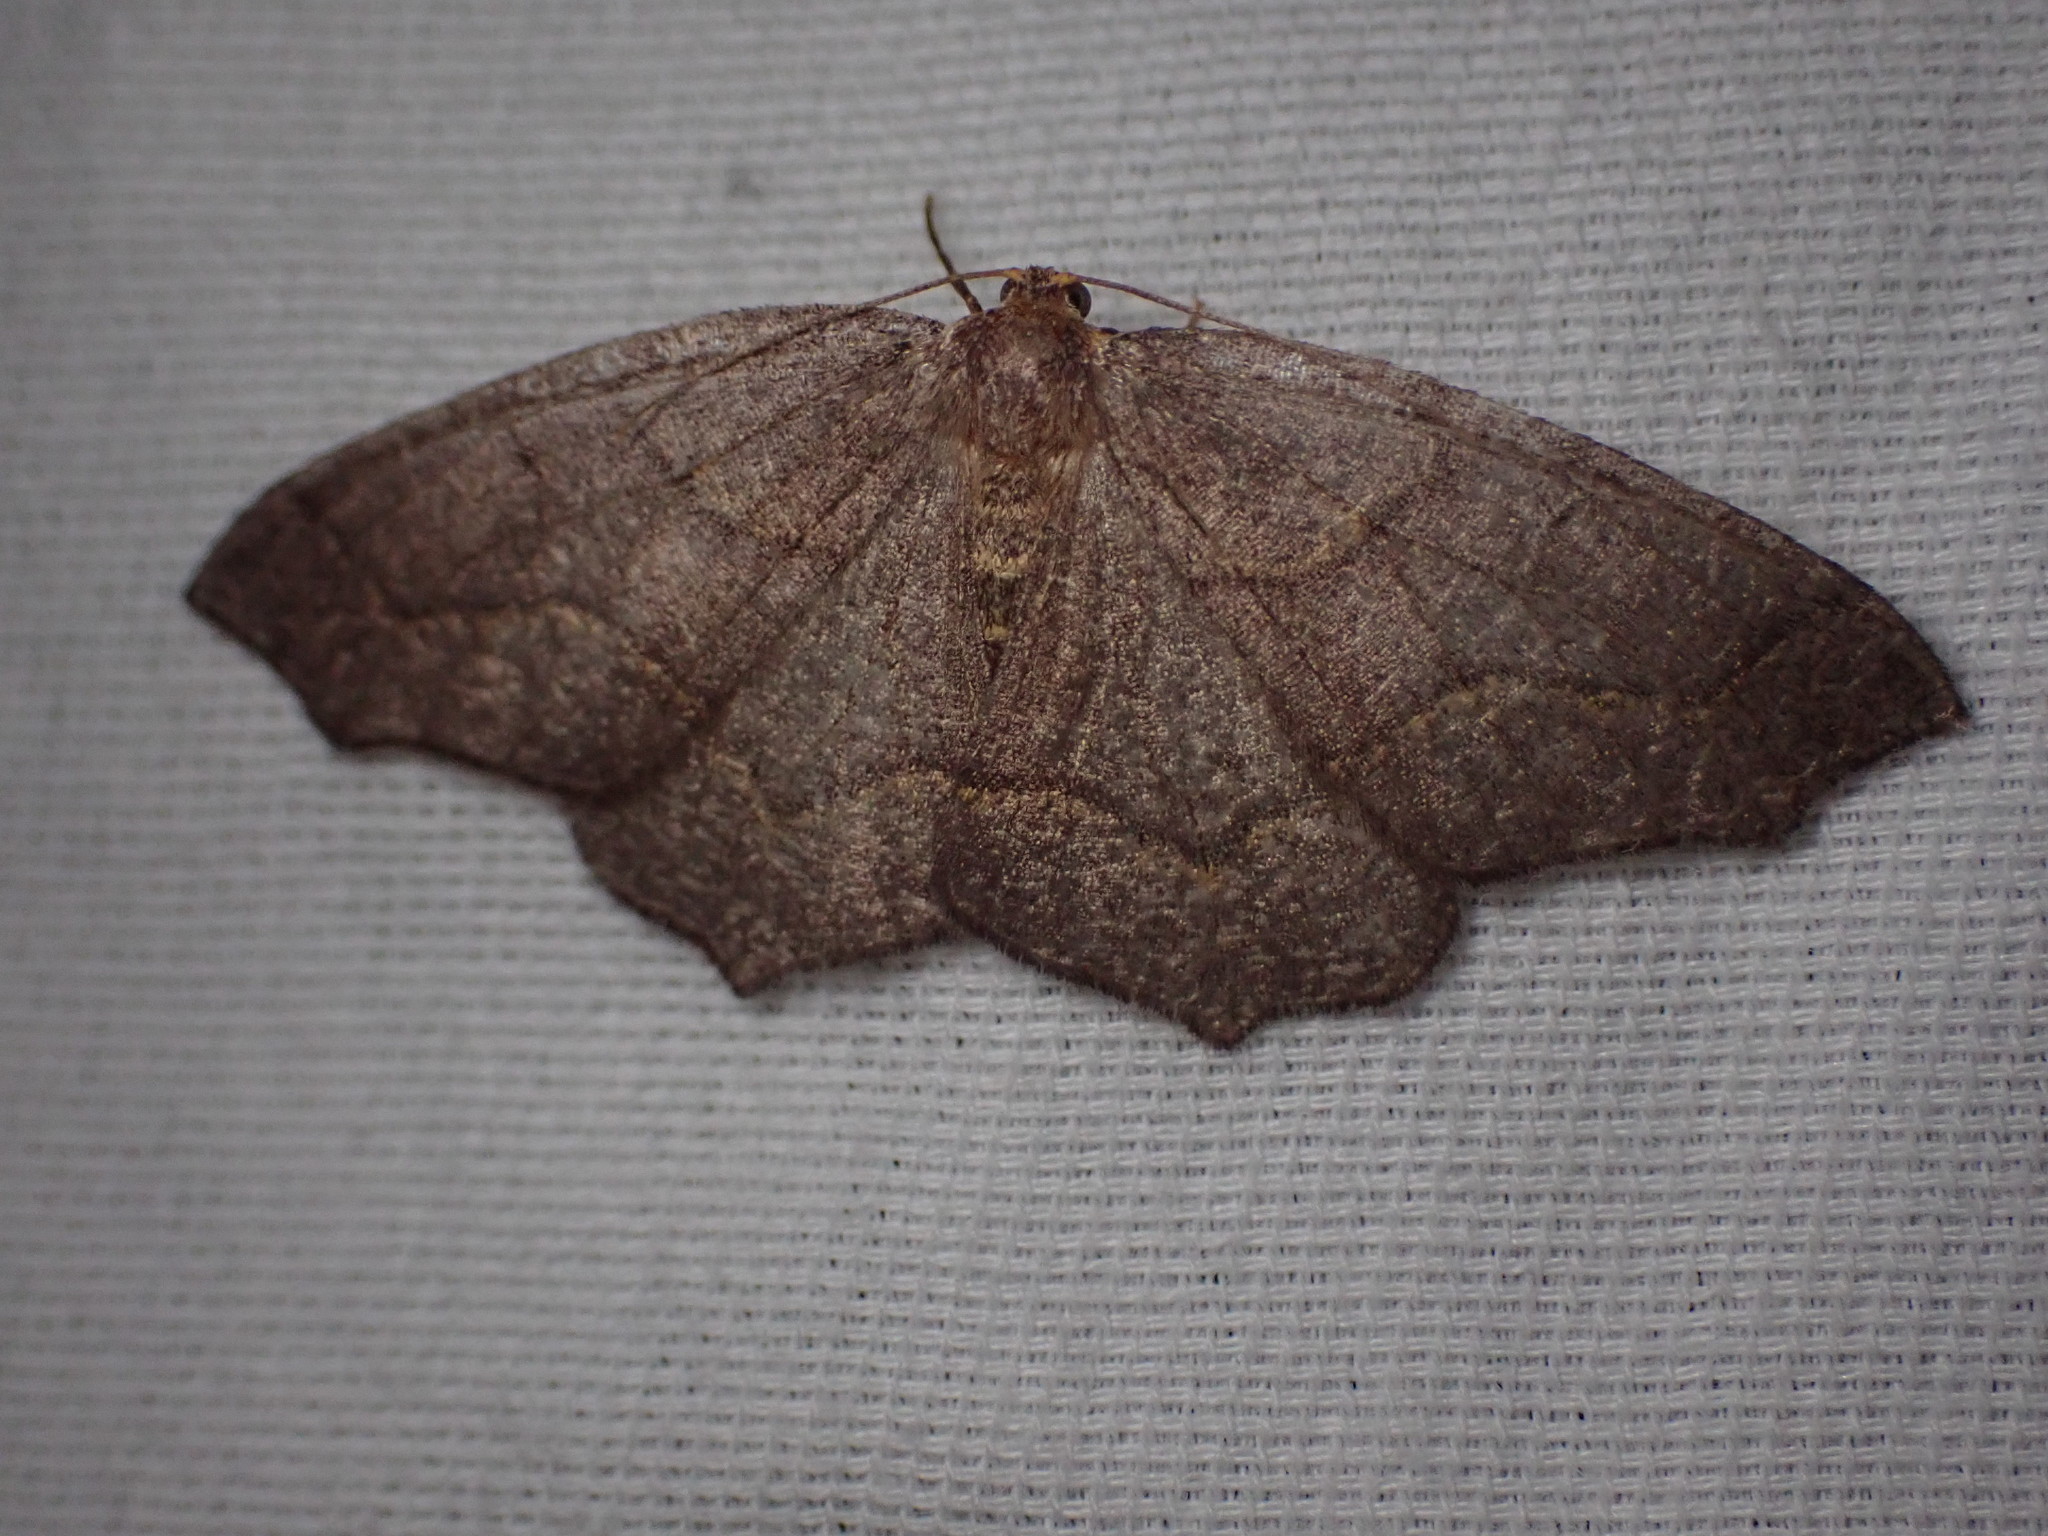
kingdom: Animalia
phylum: Arthropoda
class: Insecta
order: Lepidoptera
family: Geometridae
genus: Lambdina
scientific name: Lambdina fiscellaria
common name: Hemlock looper
